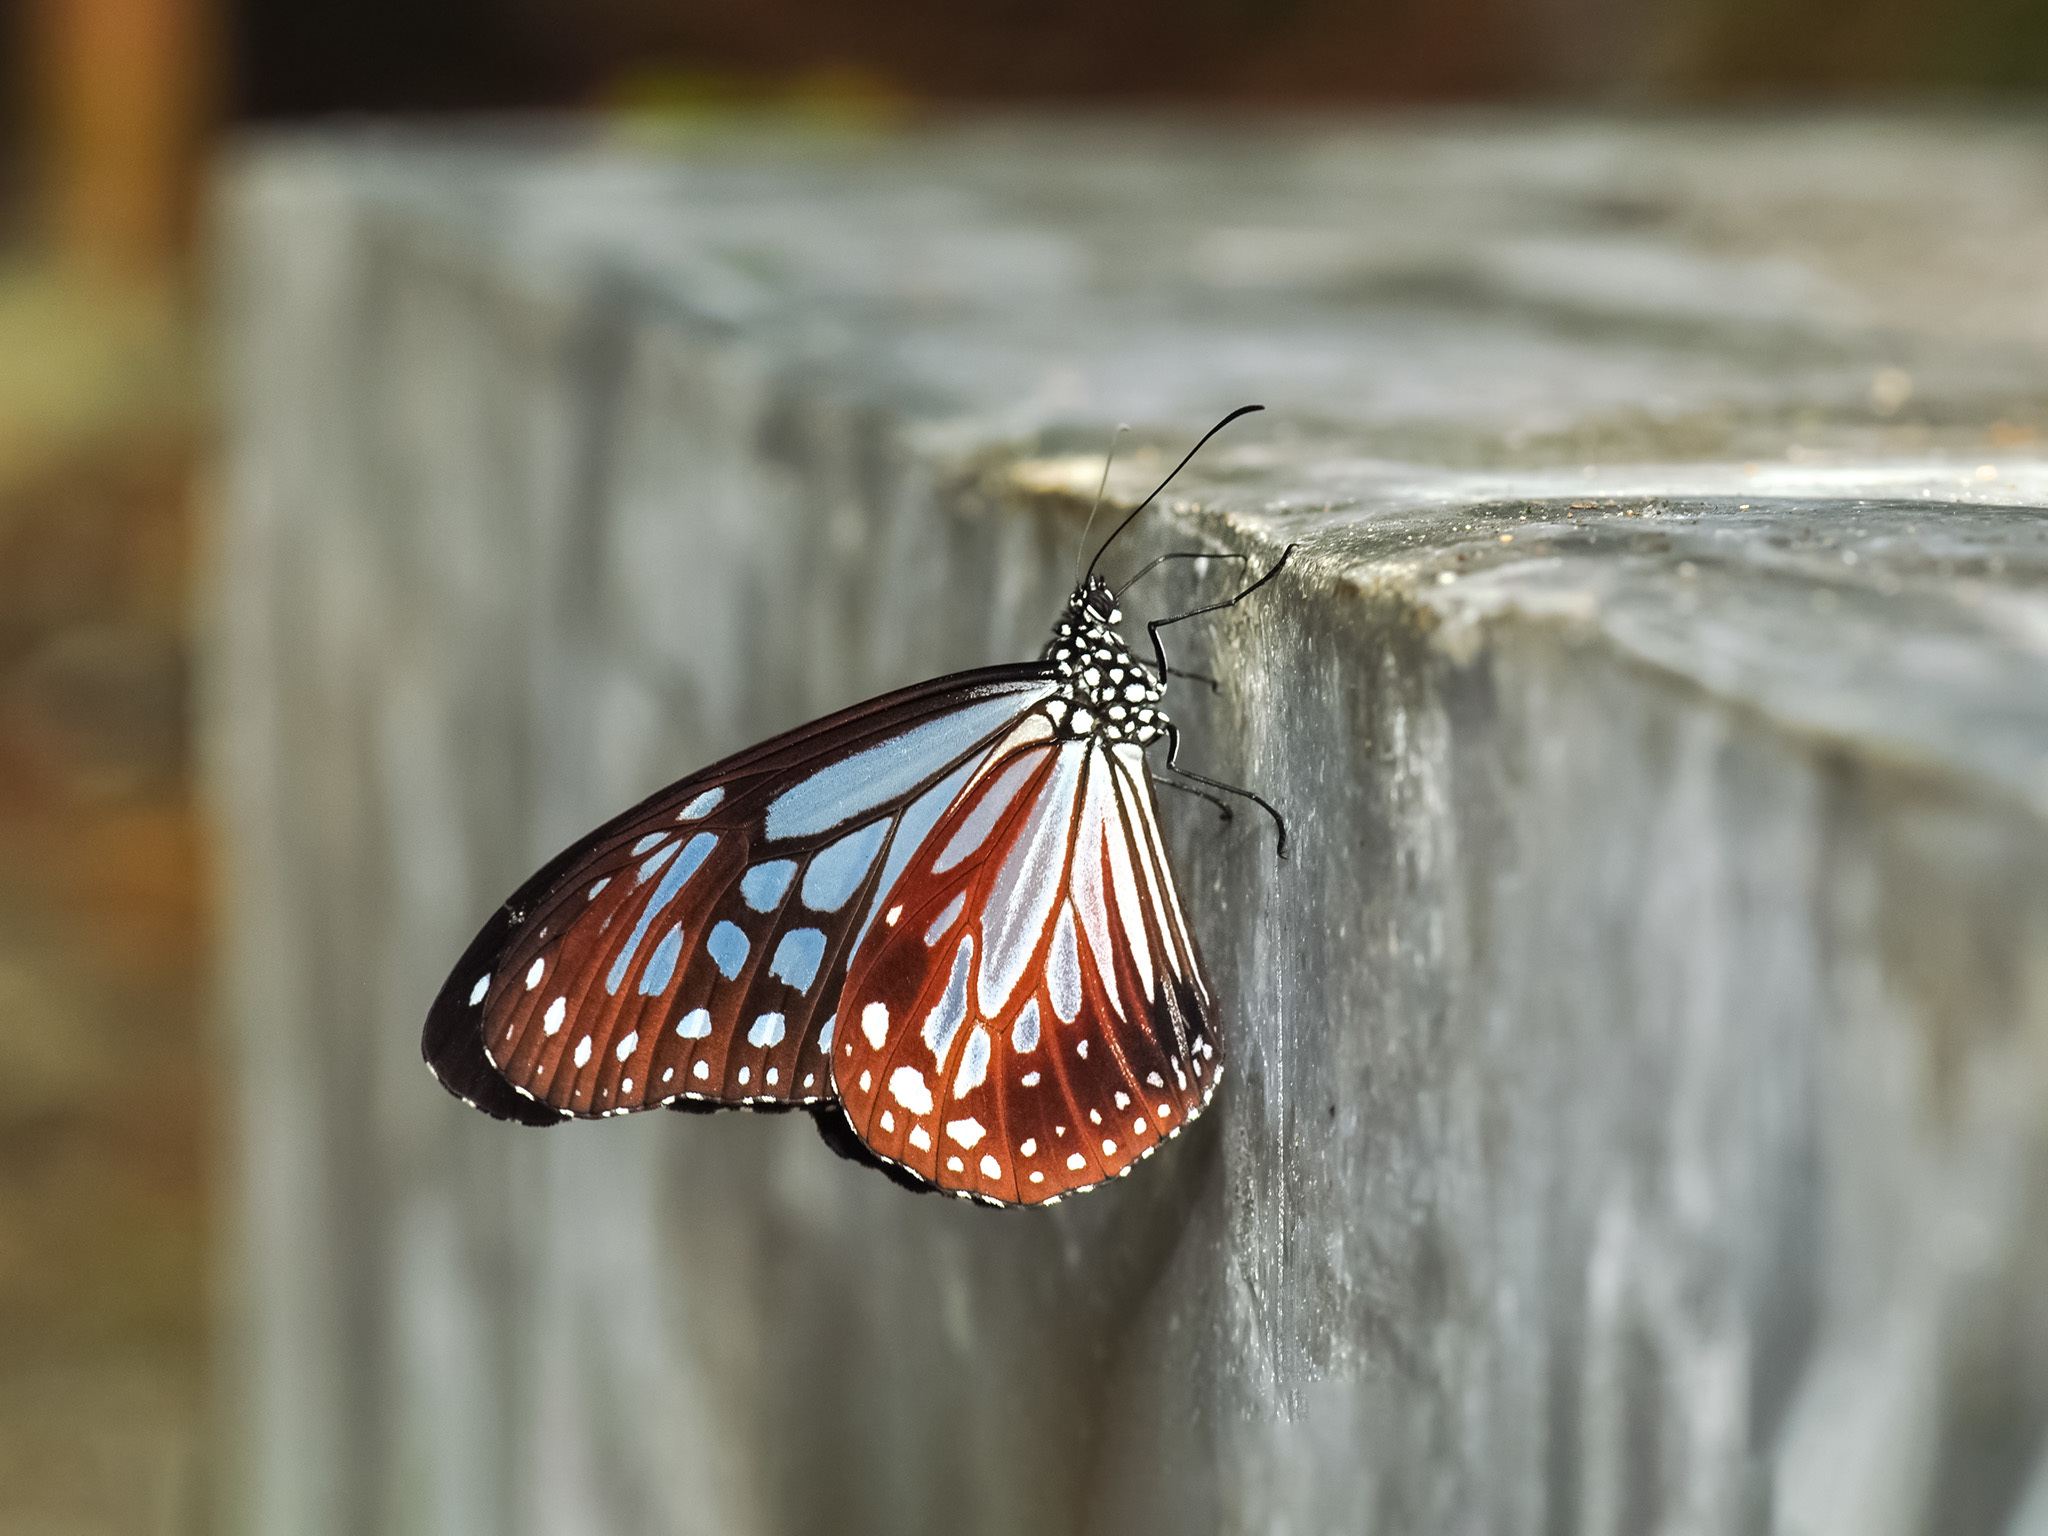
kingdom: Animalia
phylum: Arthropoda
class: Insecta
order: Lepidoptera
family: Nymphalidae
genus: Parantica
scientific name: Parantica melaneus
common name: Chocolate tiger
